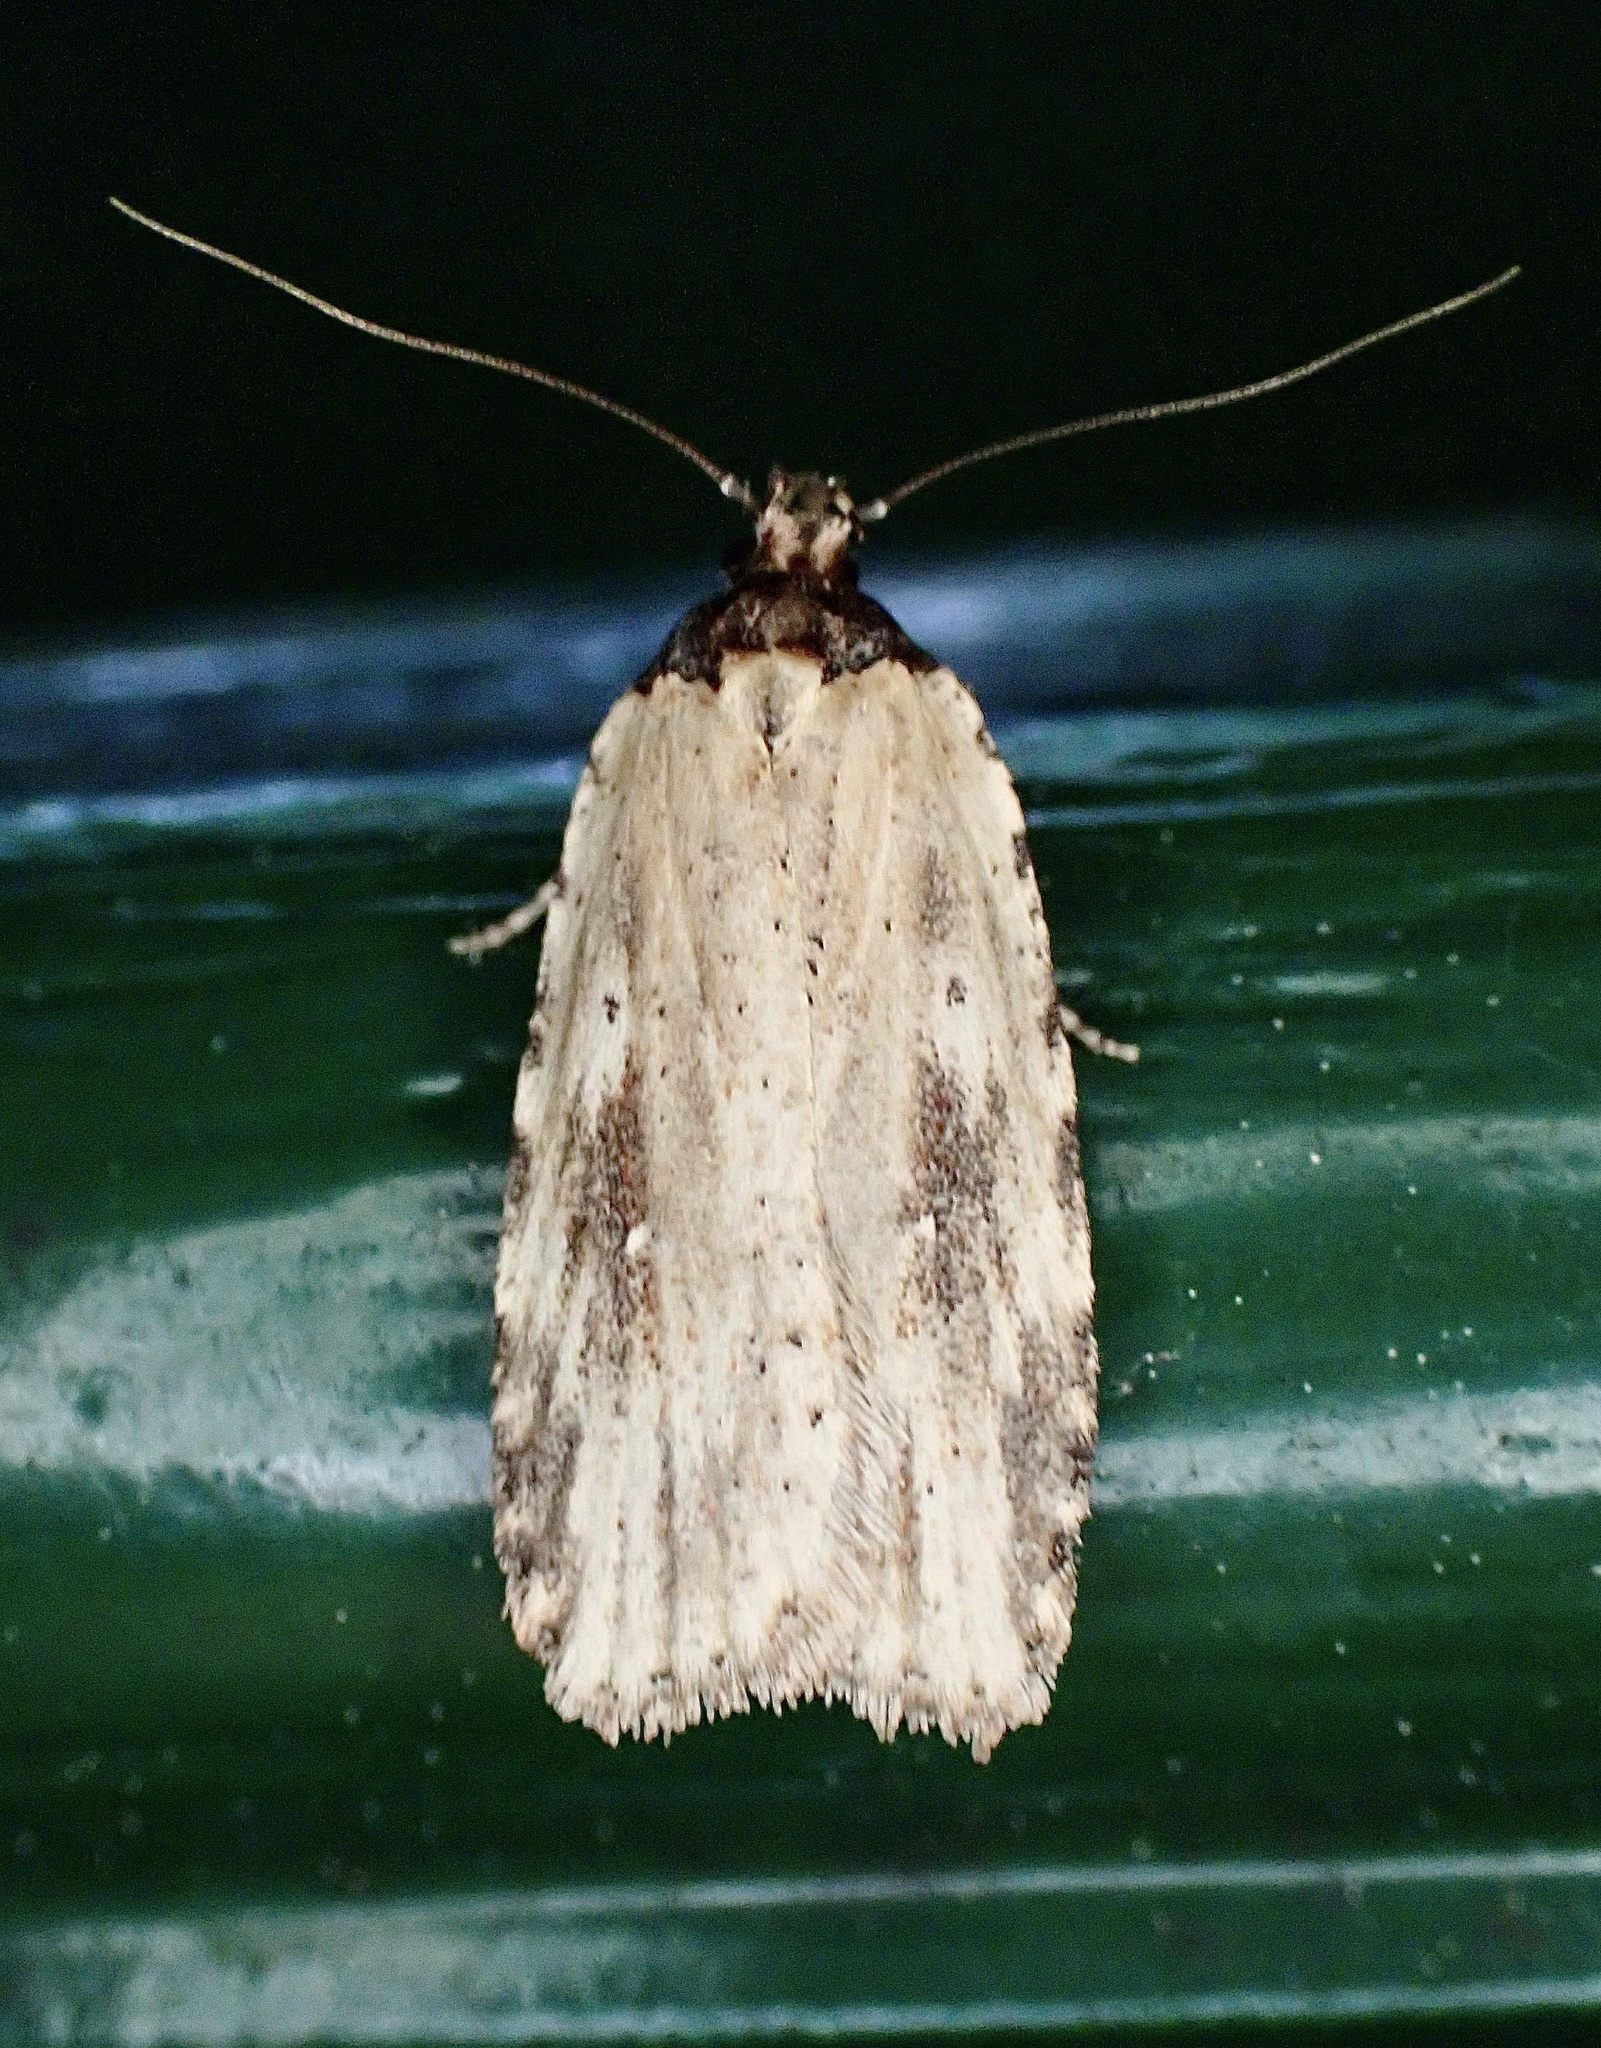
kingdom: Animalia
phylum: Arthropoda
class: Insecta
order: Lepidoptera
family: Depressariidae
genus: Agonopterix
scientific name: Agonopterix atrodorsella
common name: Beggartick leaffolder
